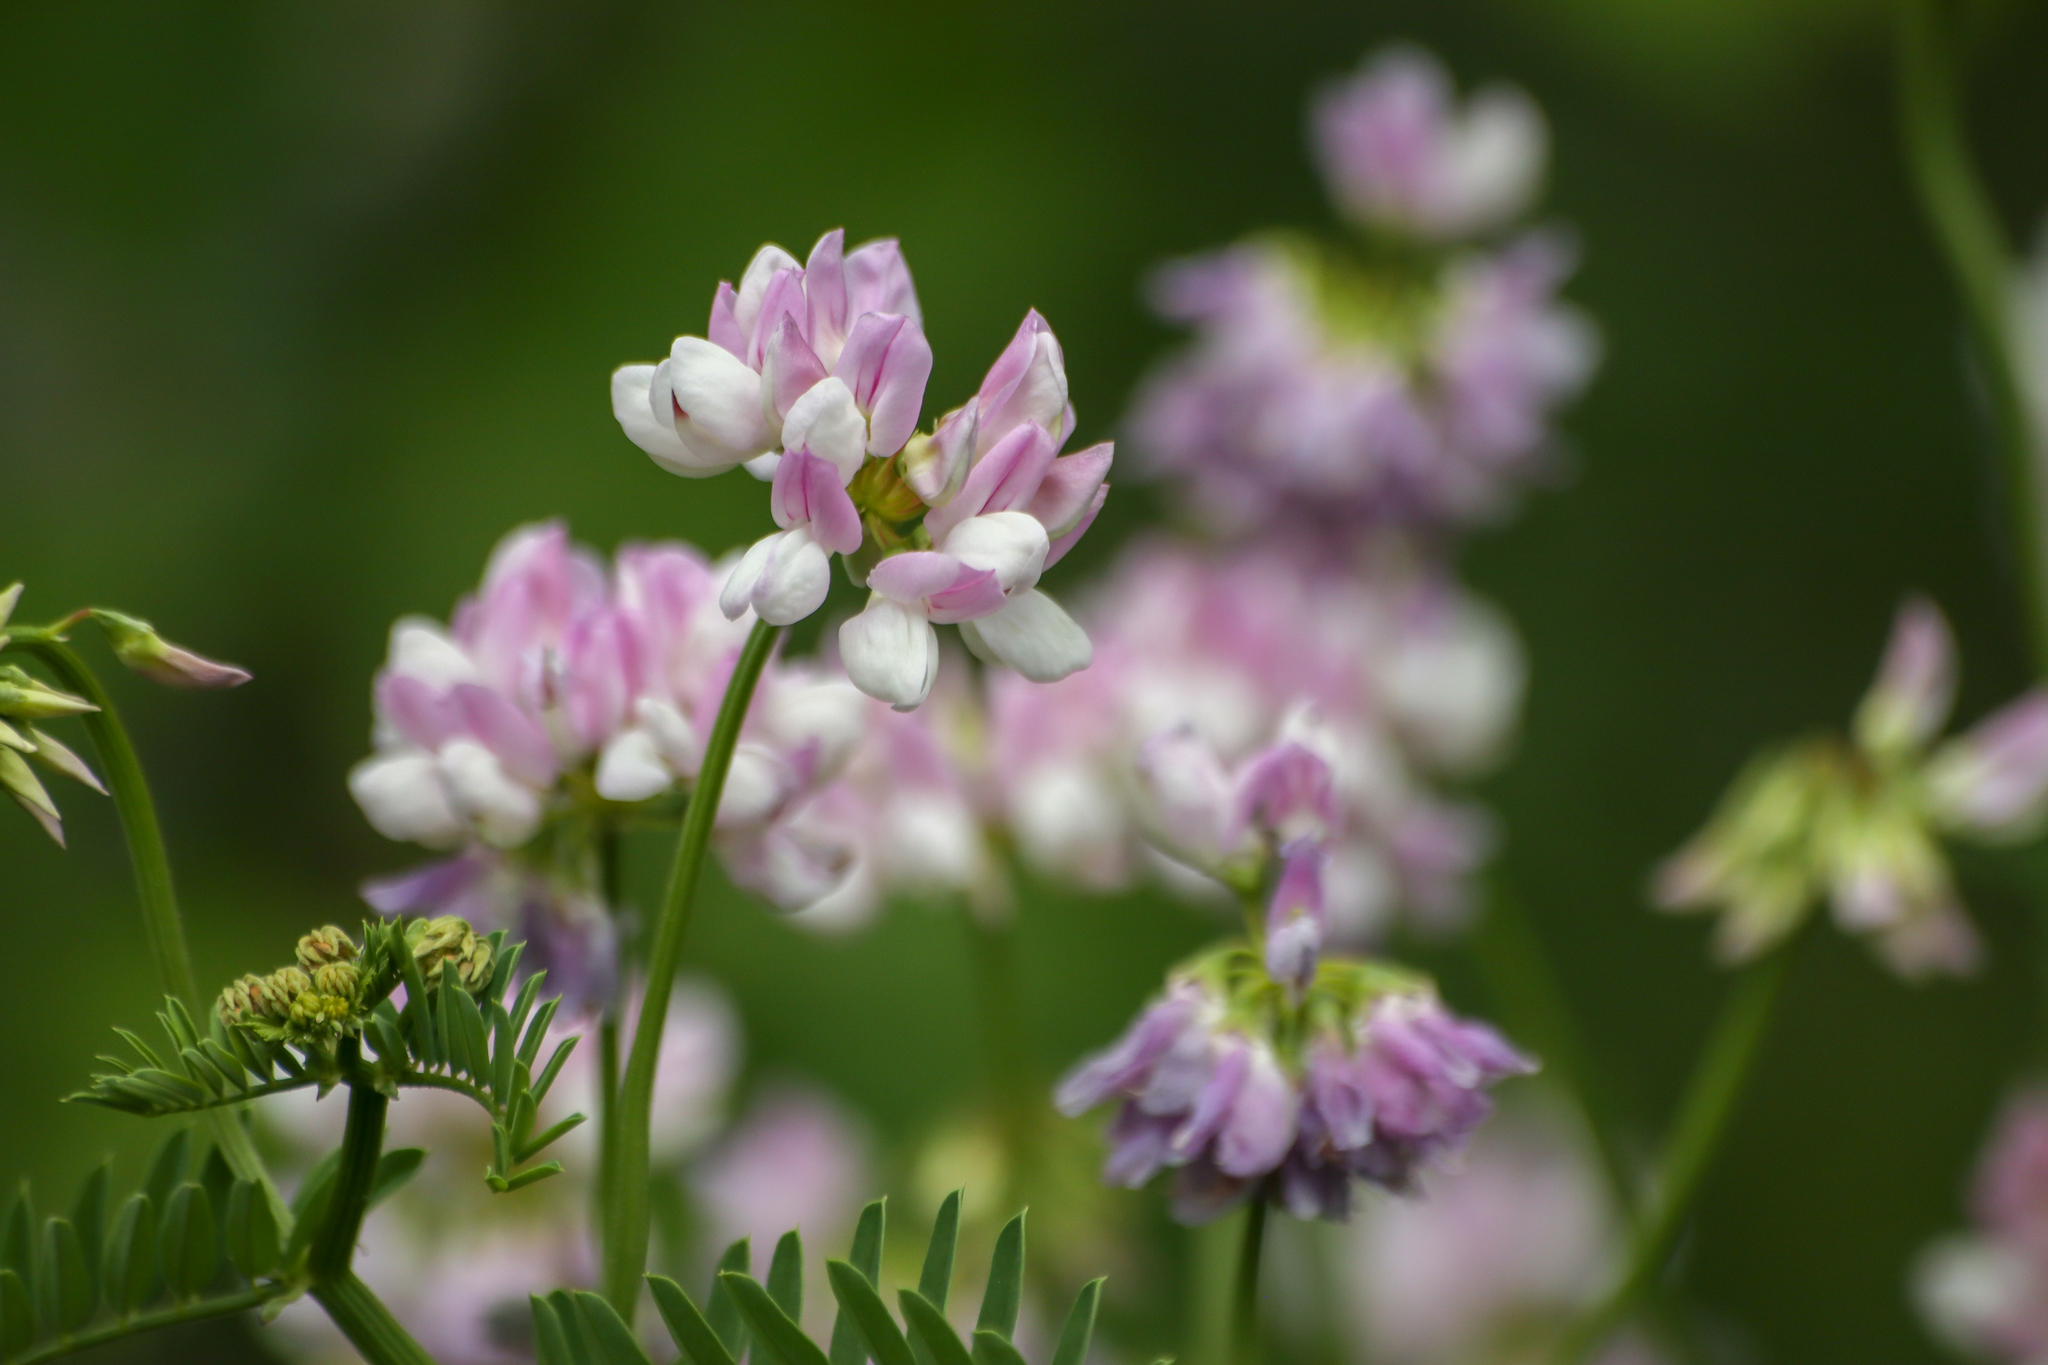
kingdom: Plantae
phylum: Tracheophyta
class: Magnoliopsida
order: Fabales
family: Fabaceae
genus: Coronilla
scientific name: Coronilla varia
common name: Crownvetch
